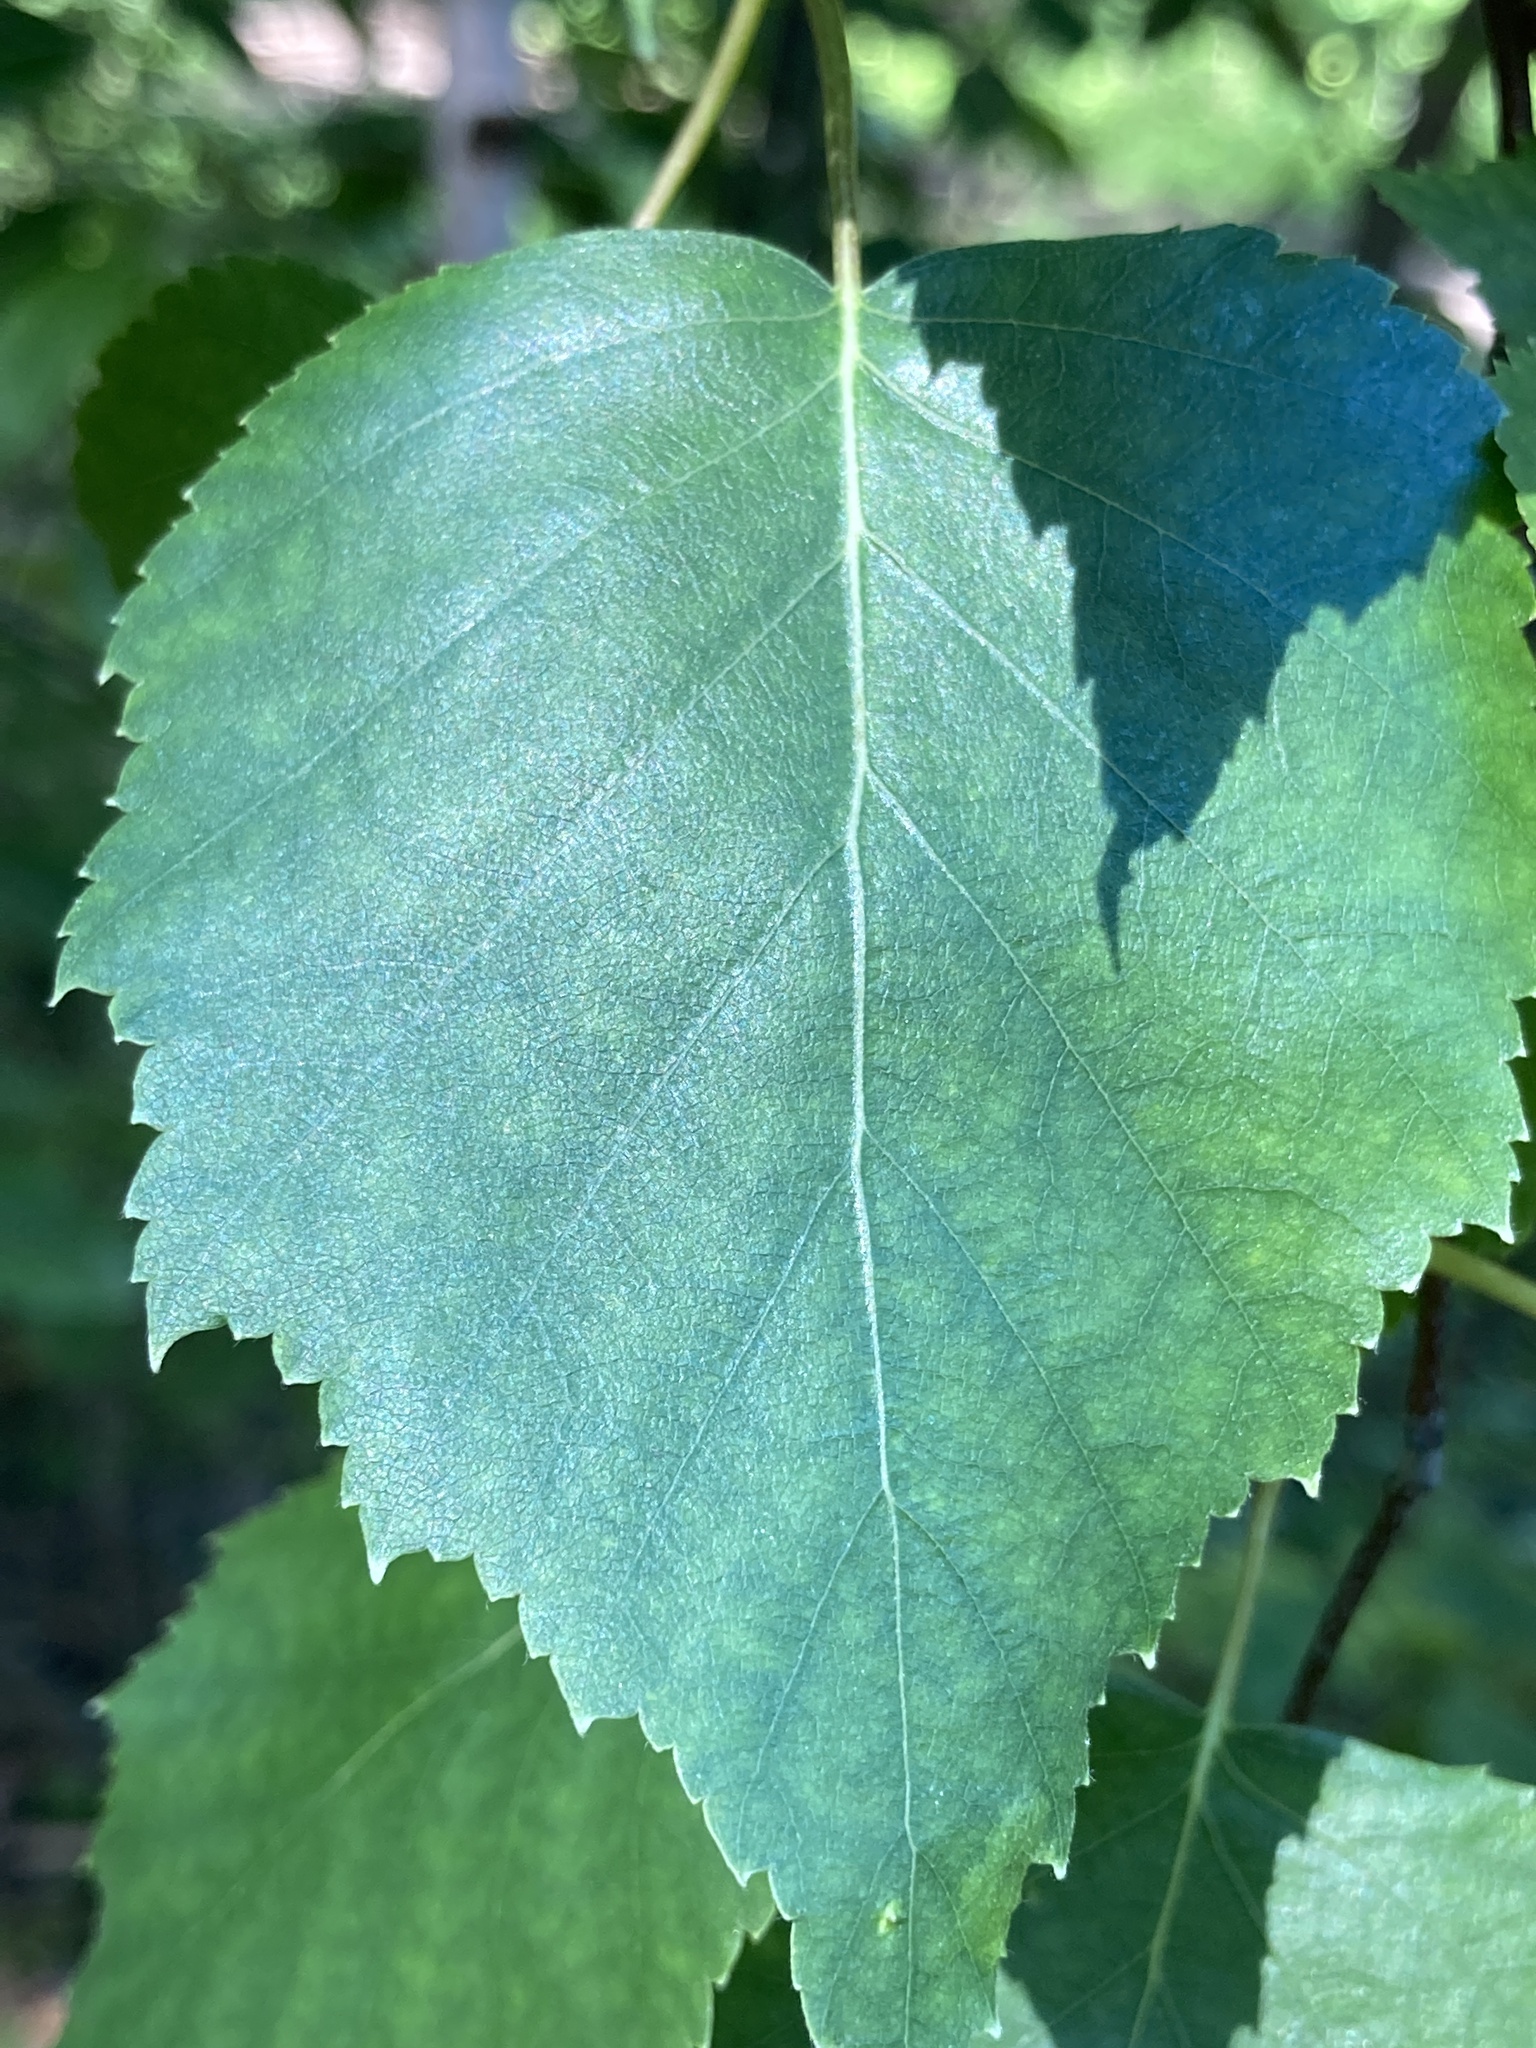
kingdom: Plantae
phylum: Tracheophyta
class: Magnoliopsida
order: Malpighiales
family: Salicaceae
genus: Salix
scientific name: Salix caprea
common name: Goat willow
